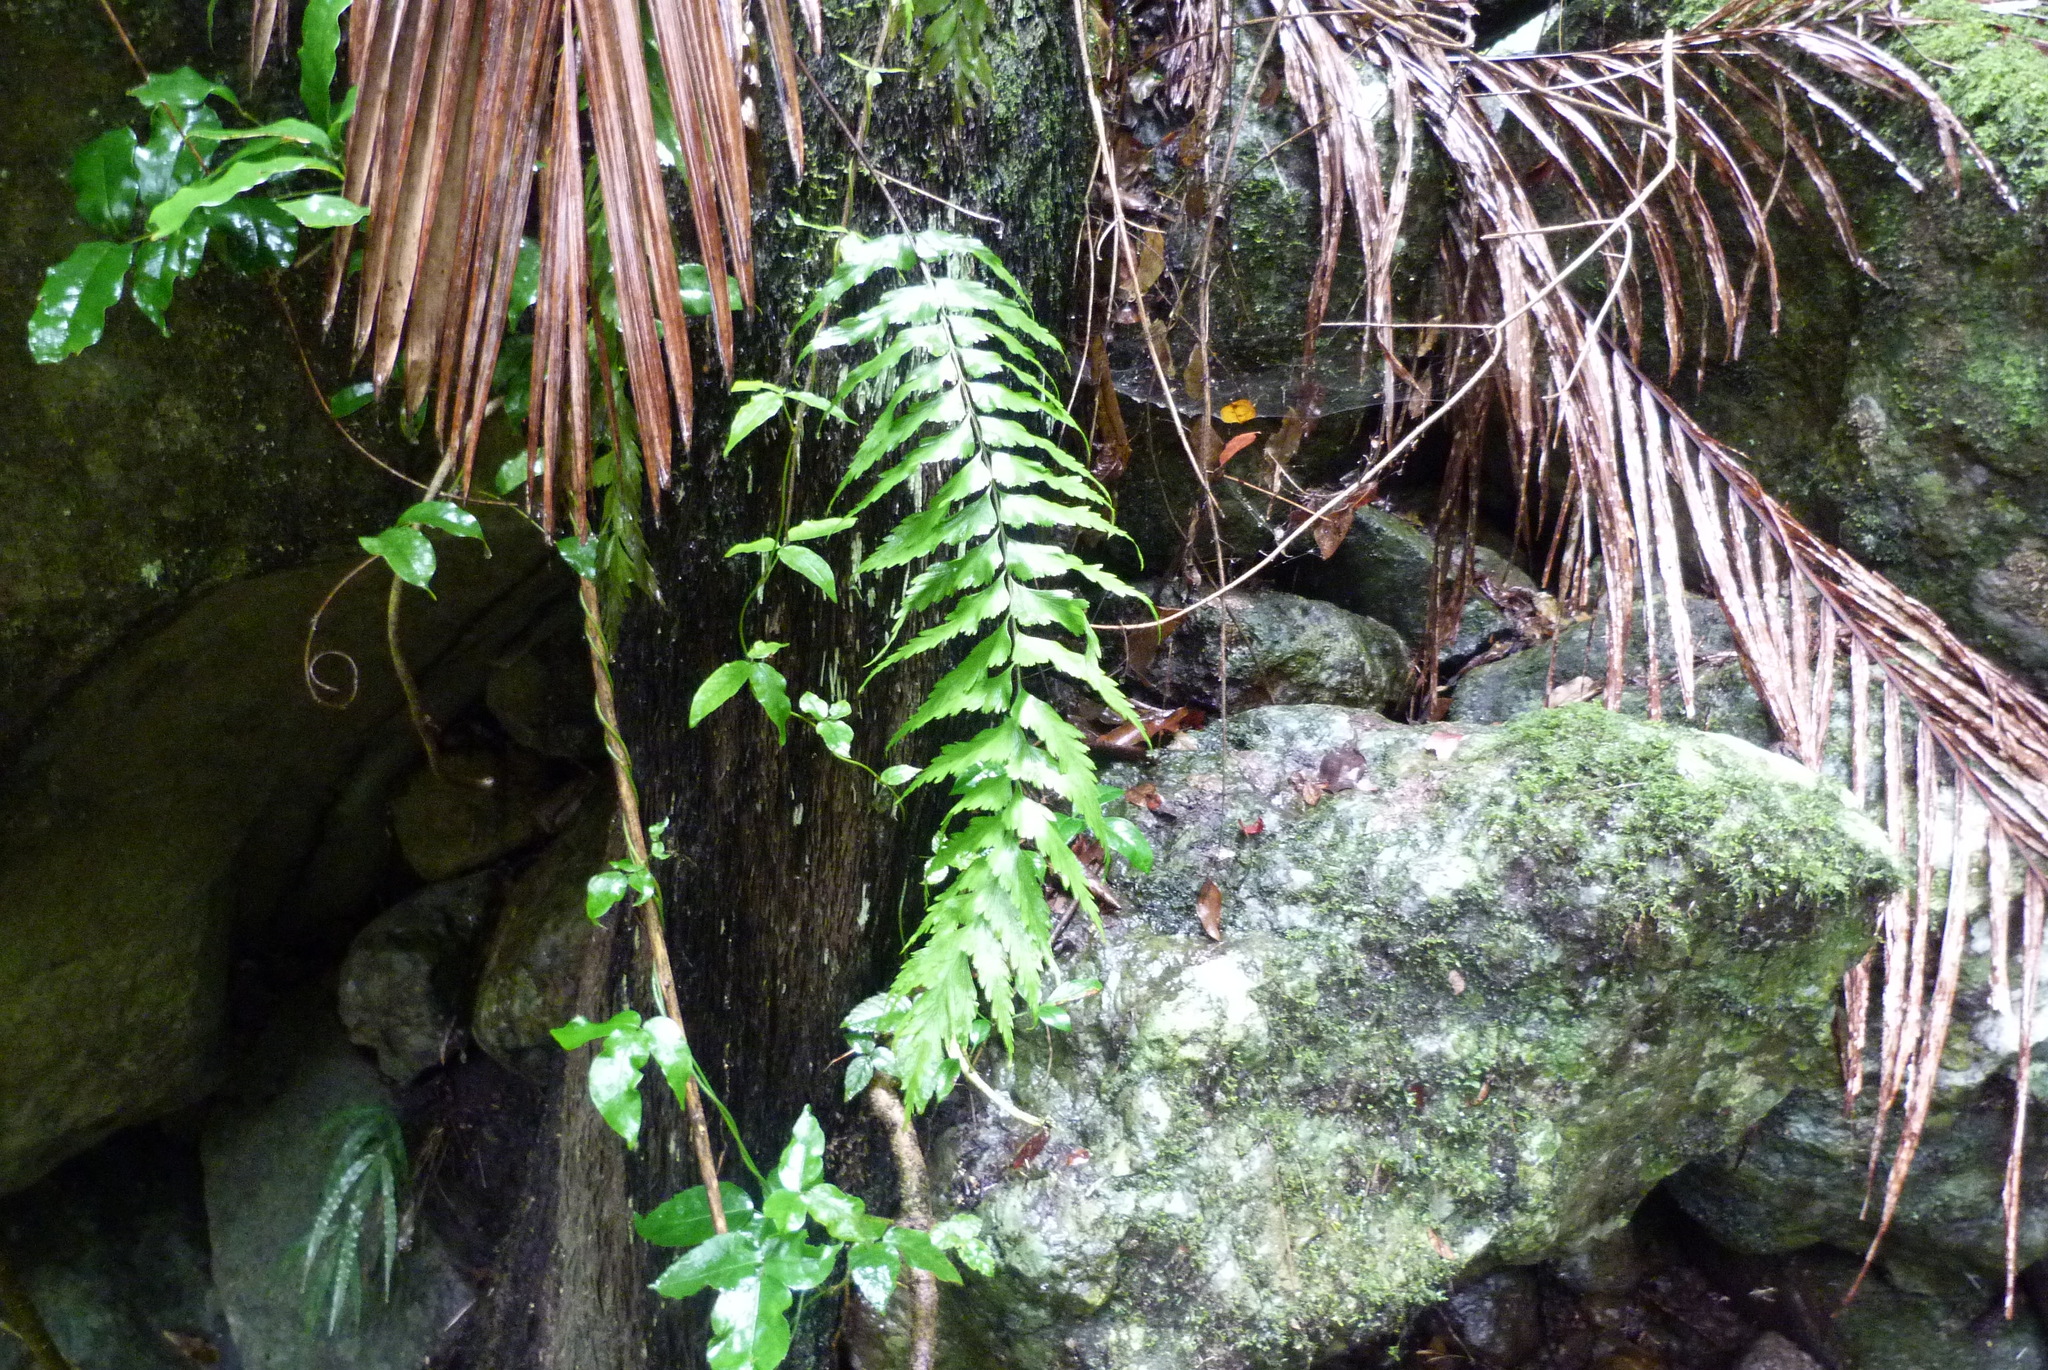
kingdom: Plantae
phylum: Tracheophyta
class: Polypodiopsida
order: Polypodiales
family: Aspleniaceae
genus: Asplenium
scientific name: Asplenium polyodon
